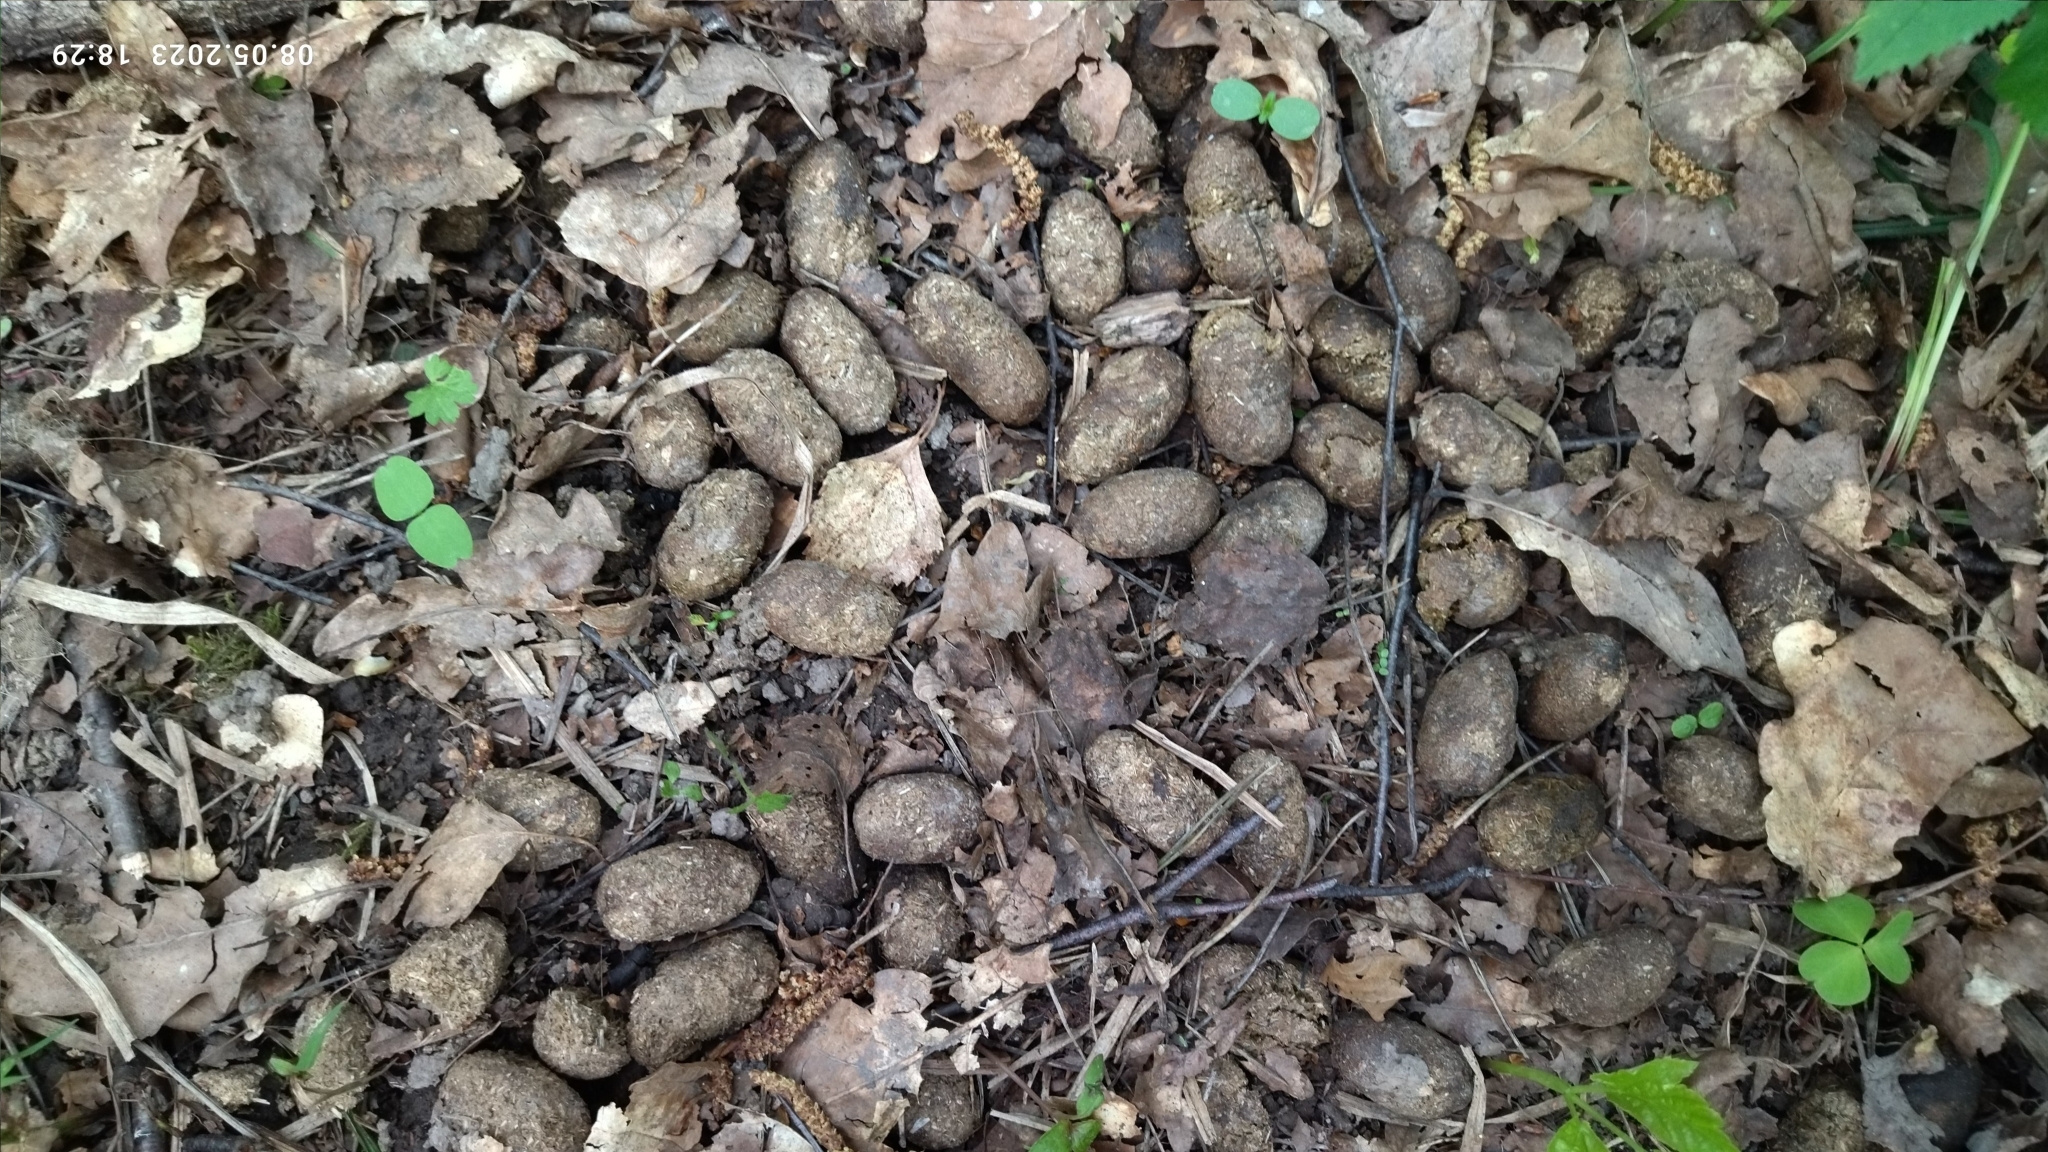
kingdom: Animalia
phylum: Chordata
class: Mammalia
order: Artiodactyla
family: Cervidae
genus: Alces
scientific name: Alces alces
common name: Moose
